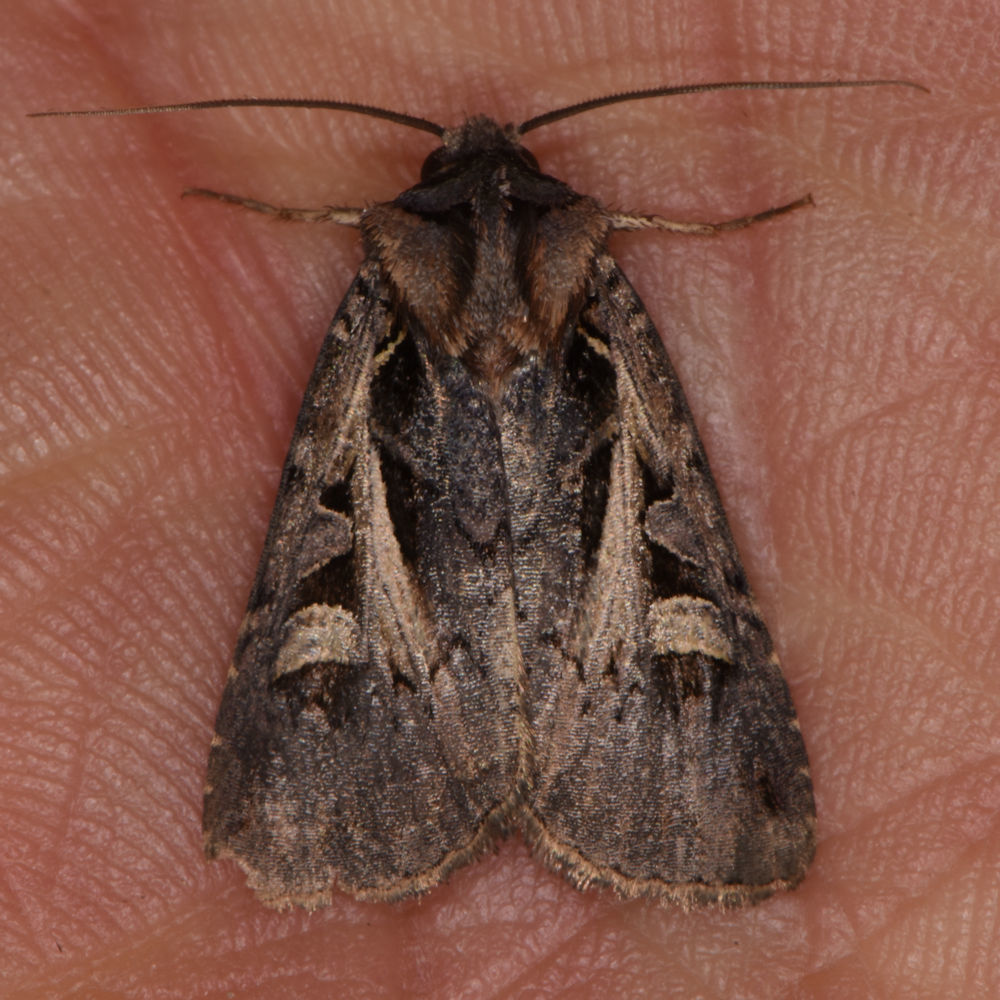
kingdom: Animalia
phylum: Arthropoda
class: Insecta
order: Lepidoptera
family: Noctuidae
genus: Feltia
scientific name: Feltia herilis
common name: Master's dart
